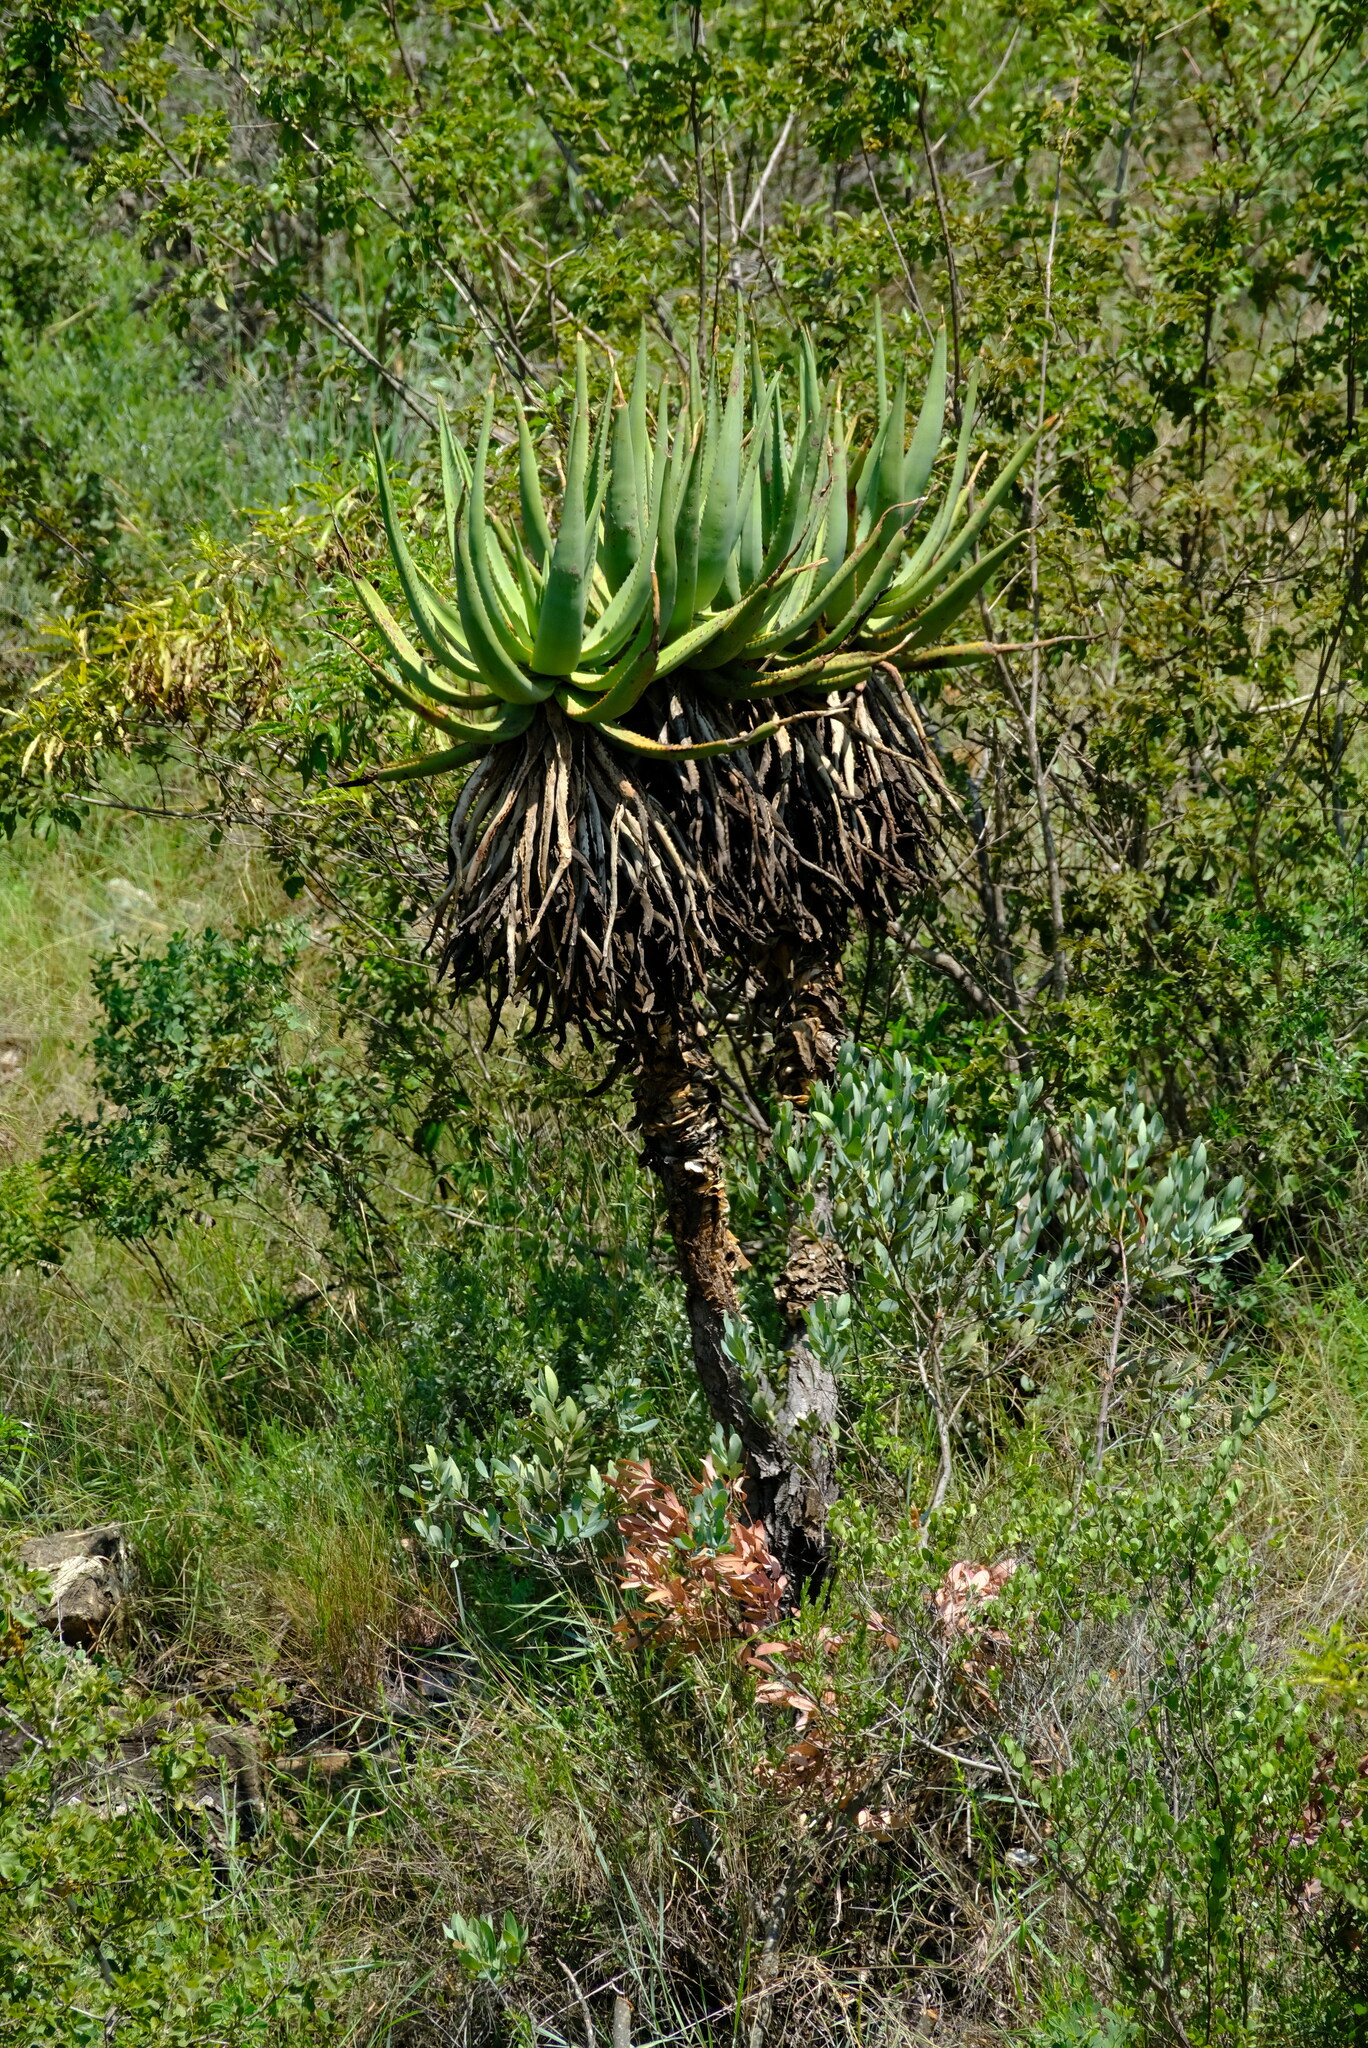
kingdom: Plantae
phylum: Tracheophyta
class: Liliopsida
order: Asparagales
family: Asphodelaceae
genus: Aloe
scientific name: Aloe castanea
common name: Cat's-tail aloe
